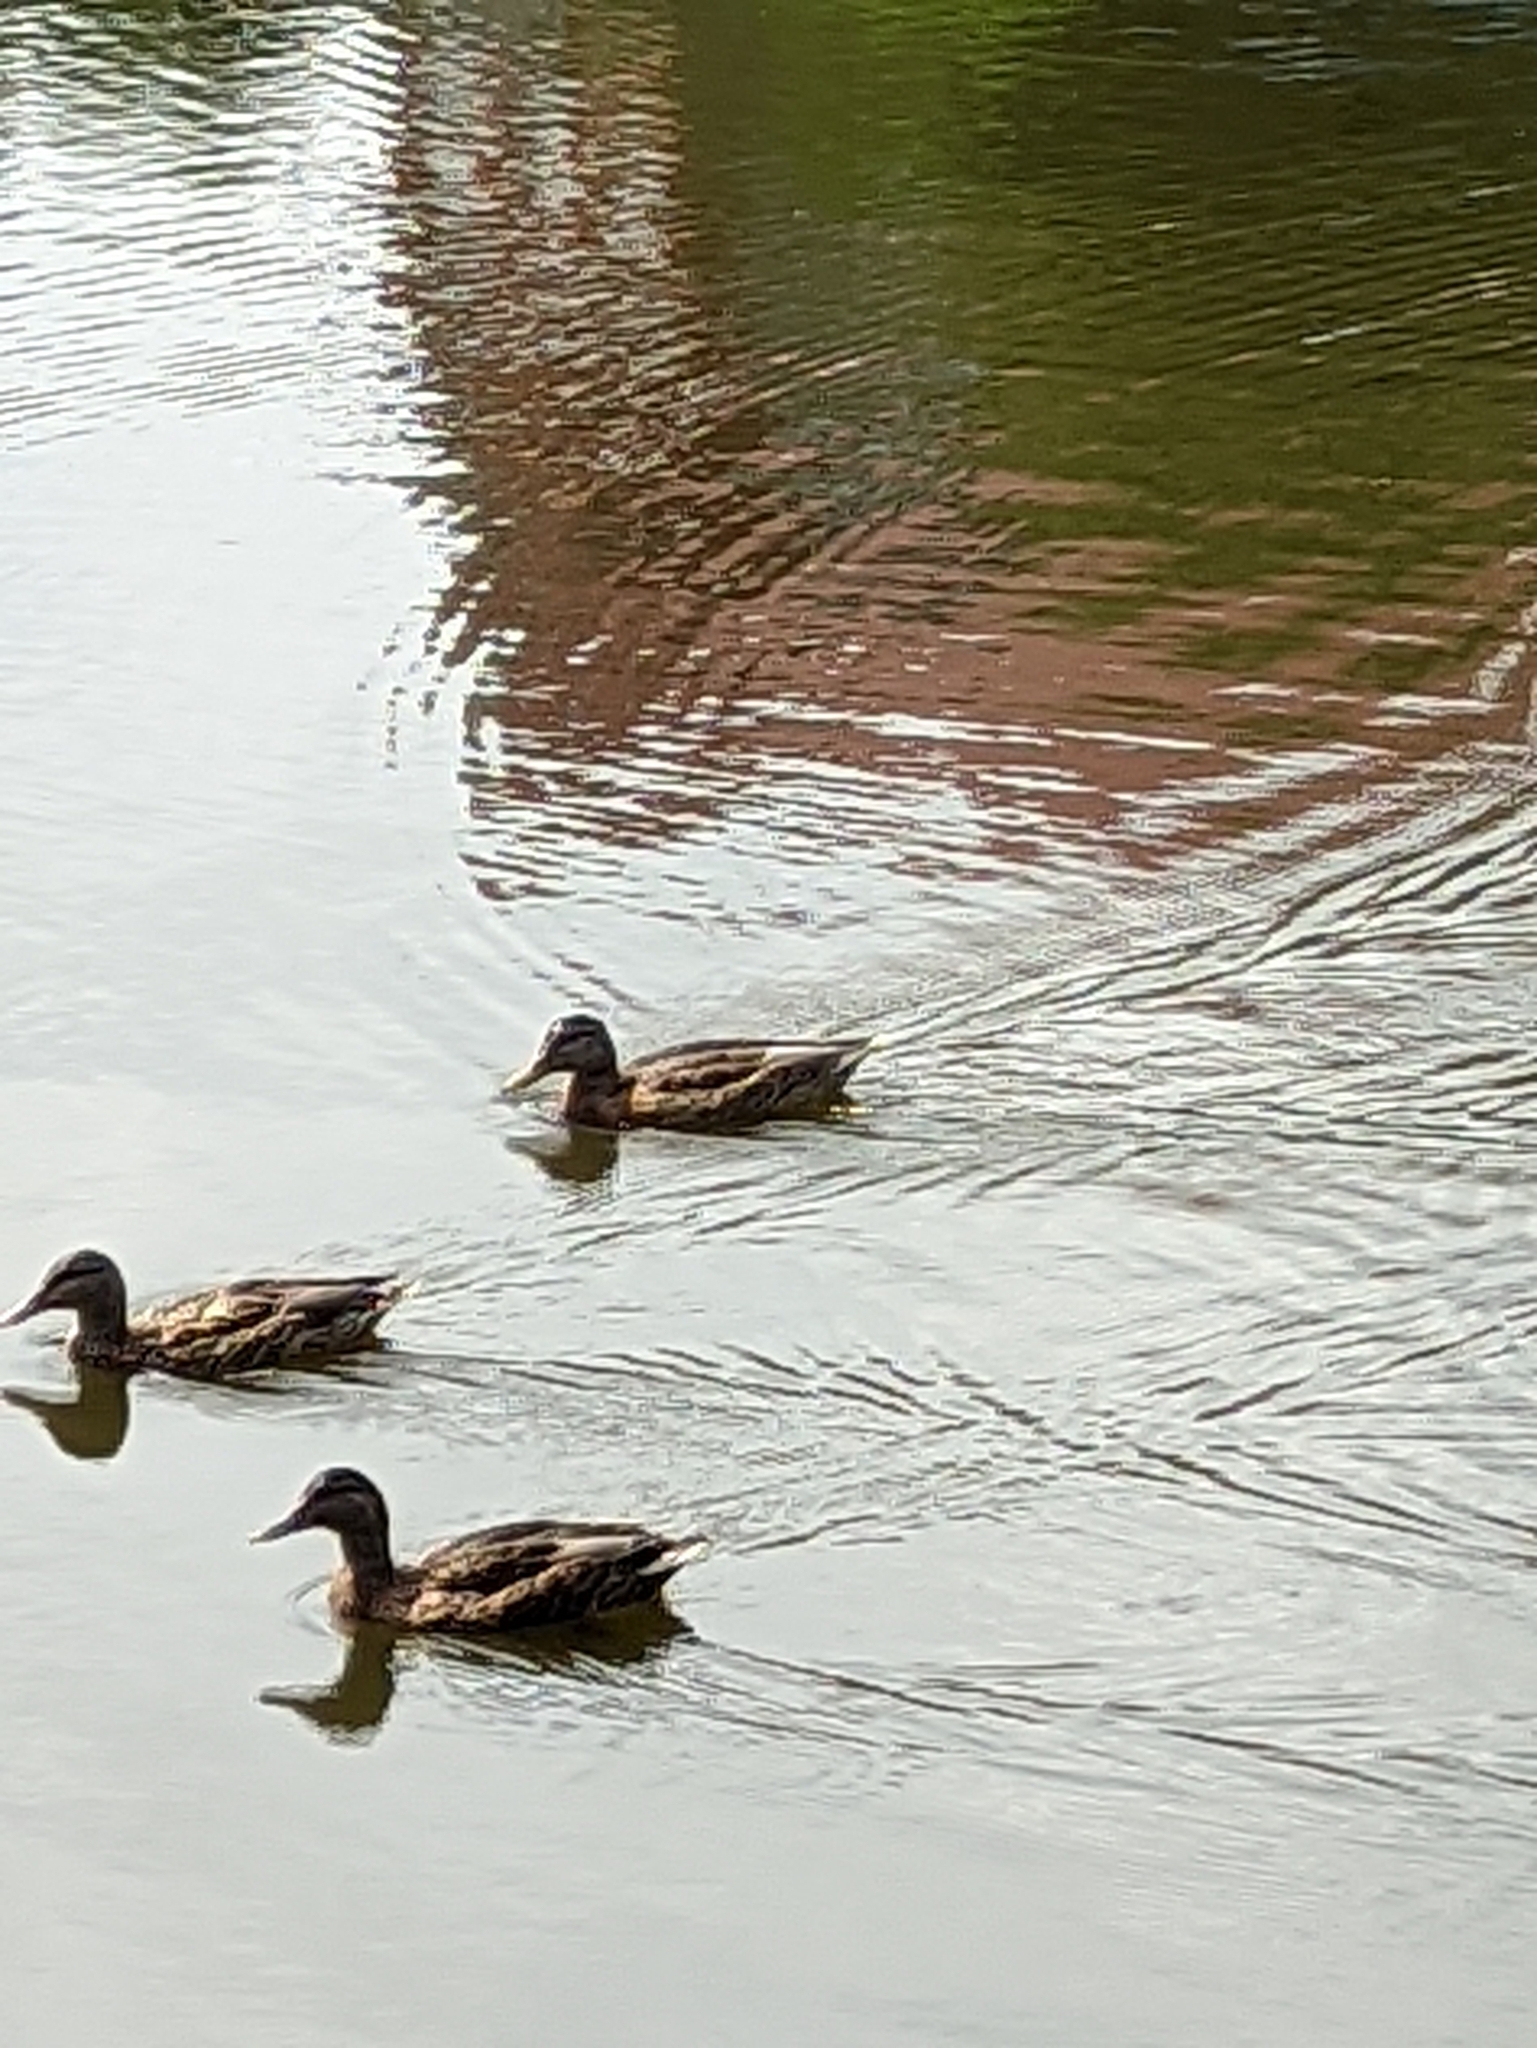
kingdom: Animalia
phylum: Chordata
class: Aves
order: Anseriformes
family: Anatidae
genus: Anas
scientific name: Anas platyrhynchos
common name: Mallard
